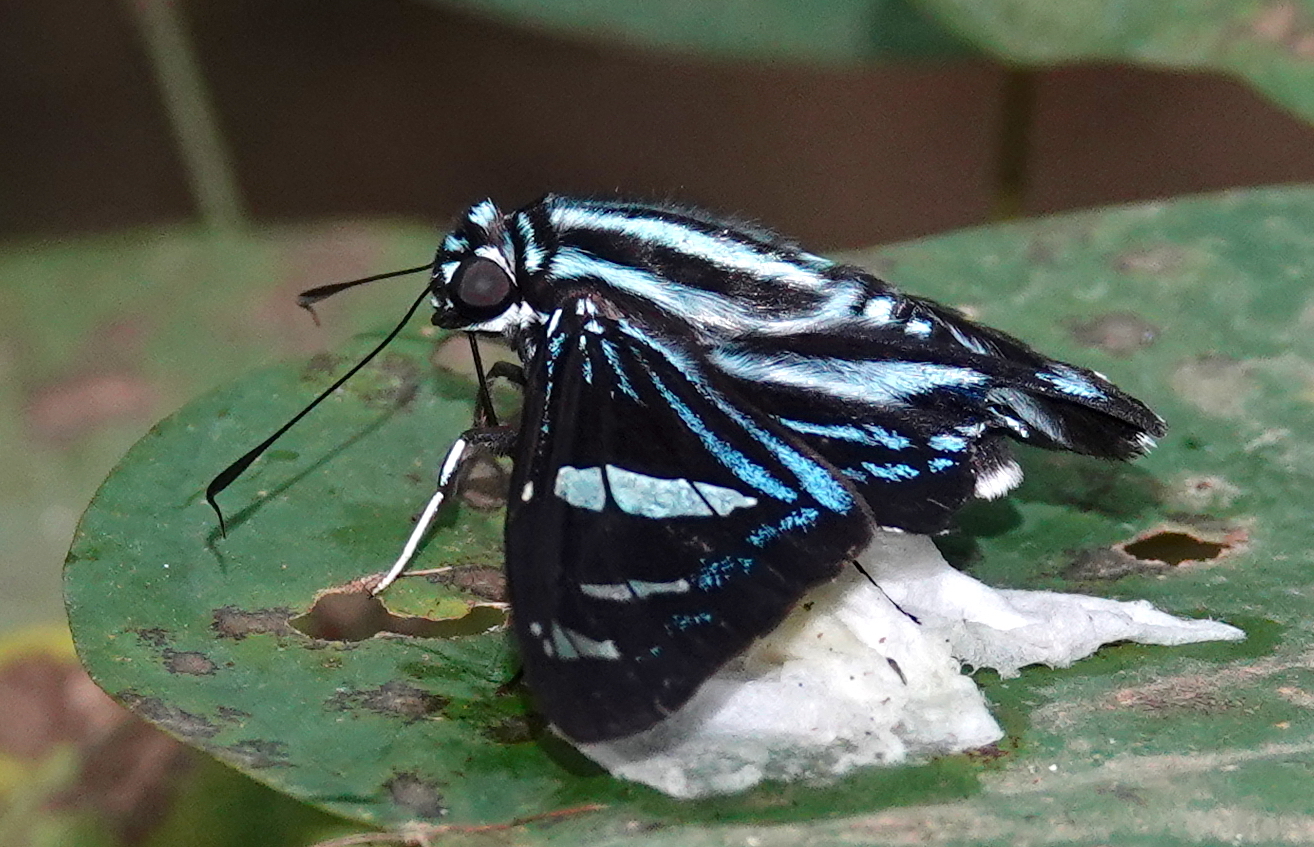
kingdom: Animalia
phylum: Arthropoda
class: Insecta
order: Lepidoptera
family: Hesperiidae
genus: Phocides
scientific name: Phocides pigmalion
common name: Mangrove skipper
